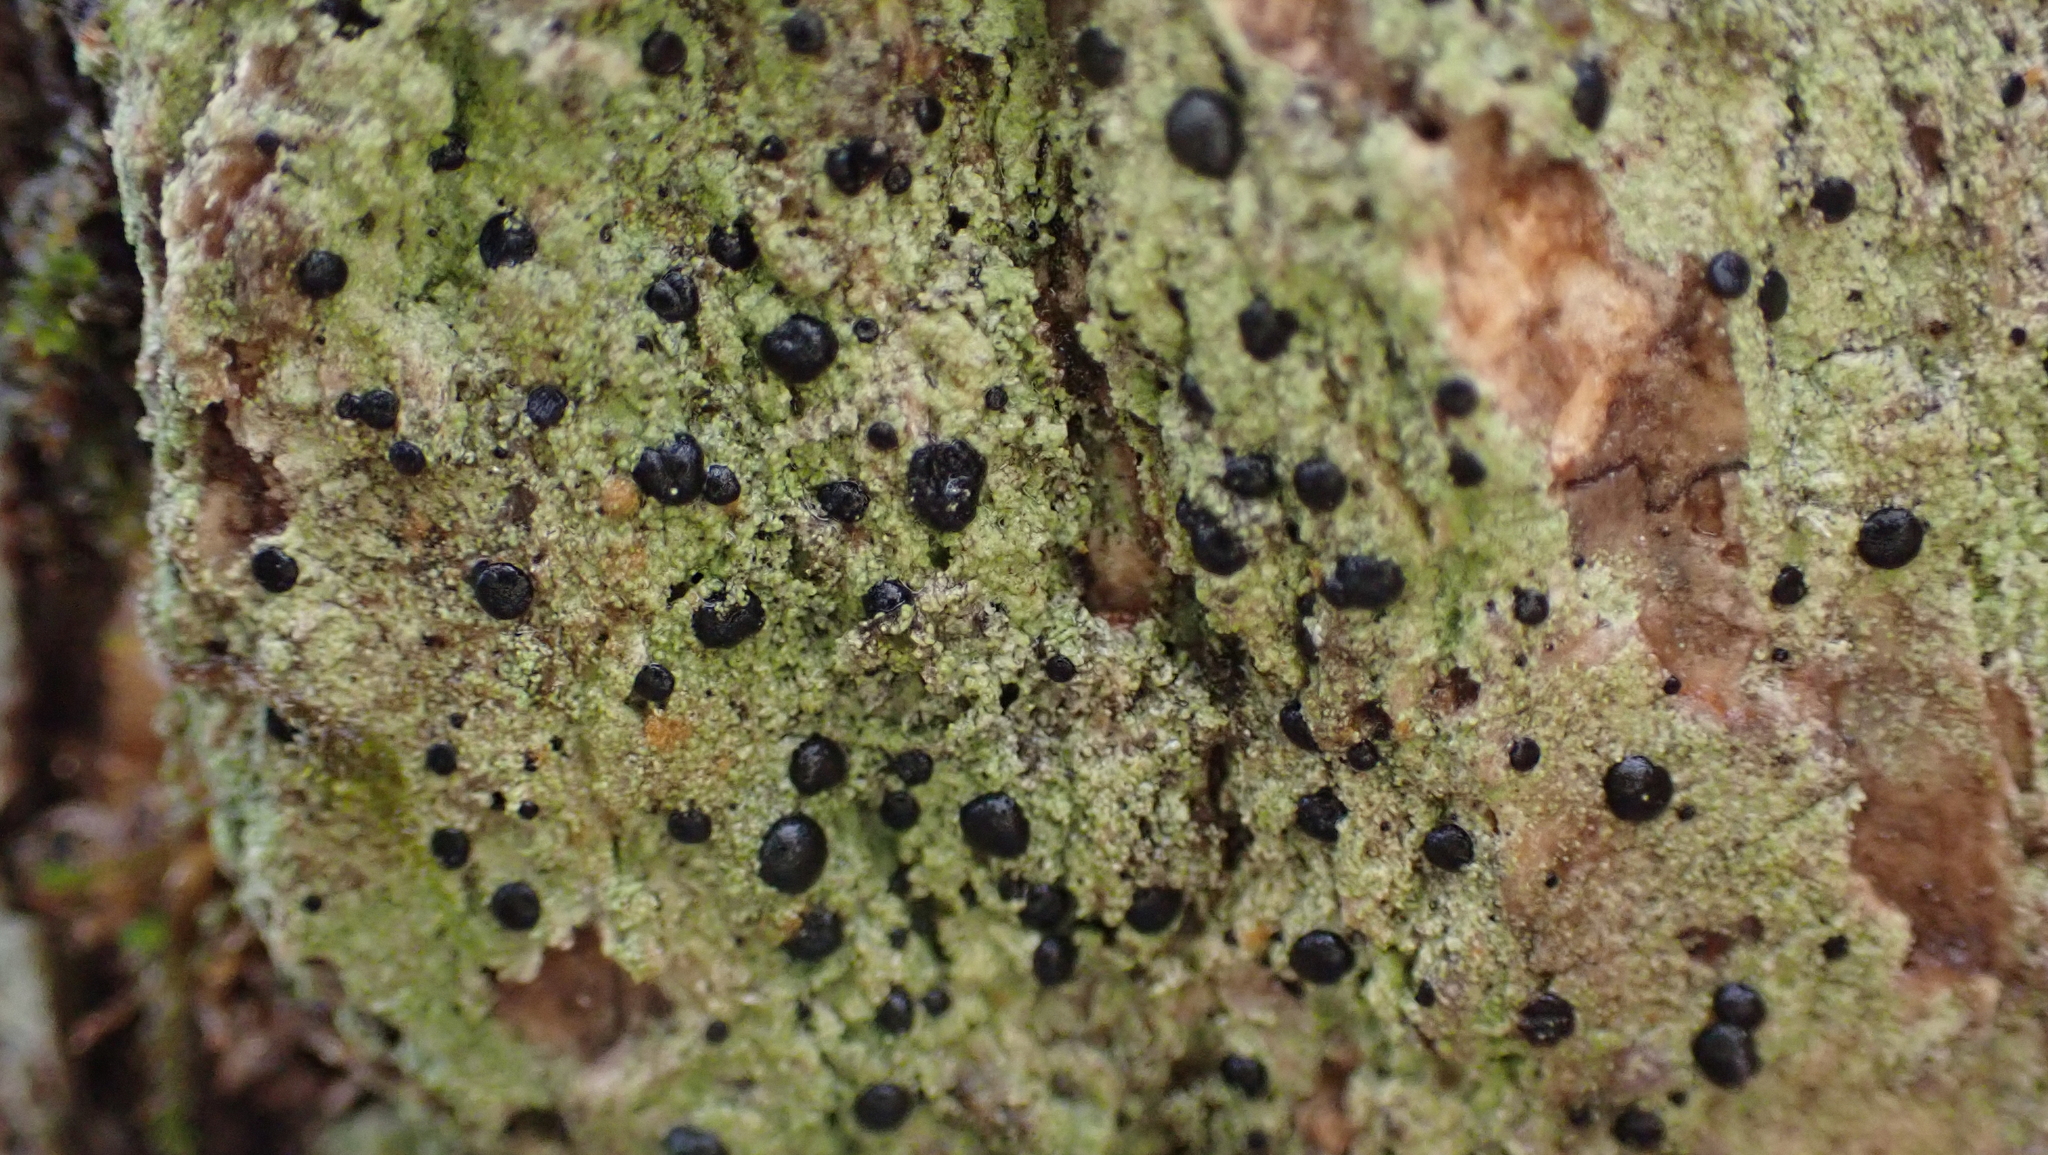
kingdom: Fungi
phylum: Ascomycota
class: Lecanoromycetes
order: Lecanorales
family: Ramalinaceae
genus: Bacidia
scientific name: Bacidia schweinitzii
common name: Surprise lichen
